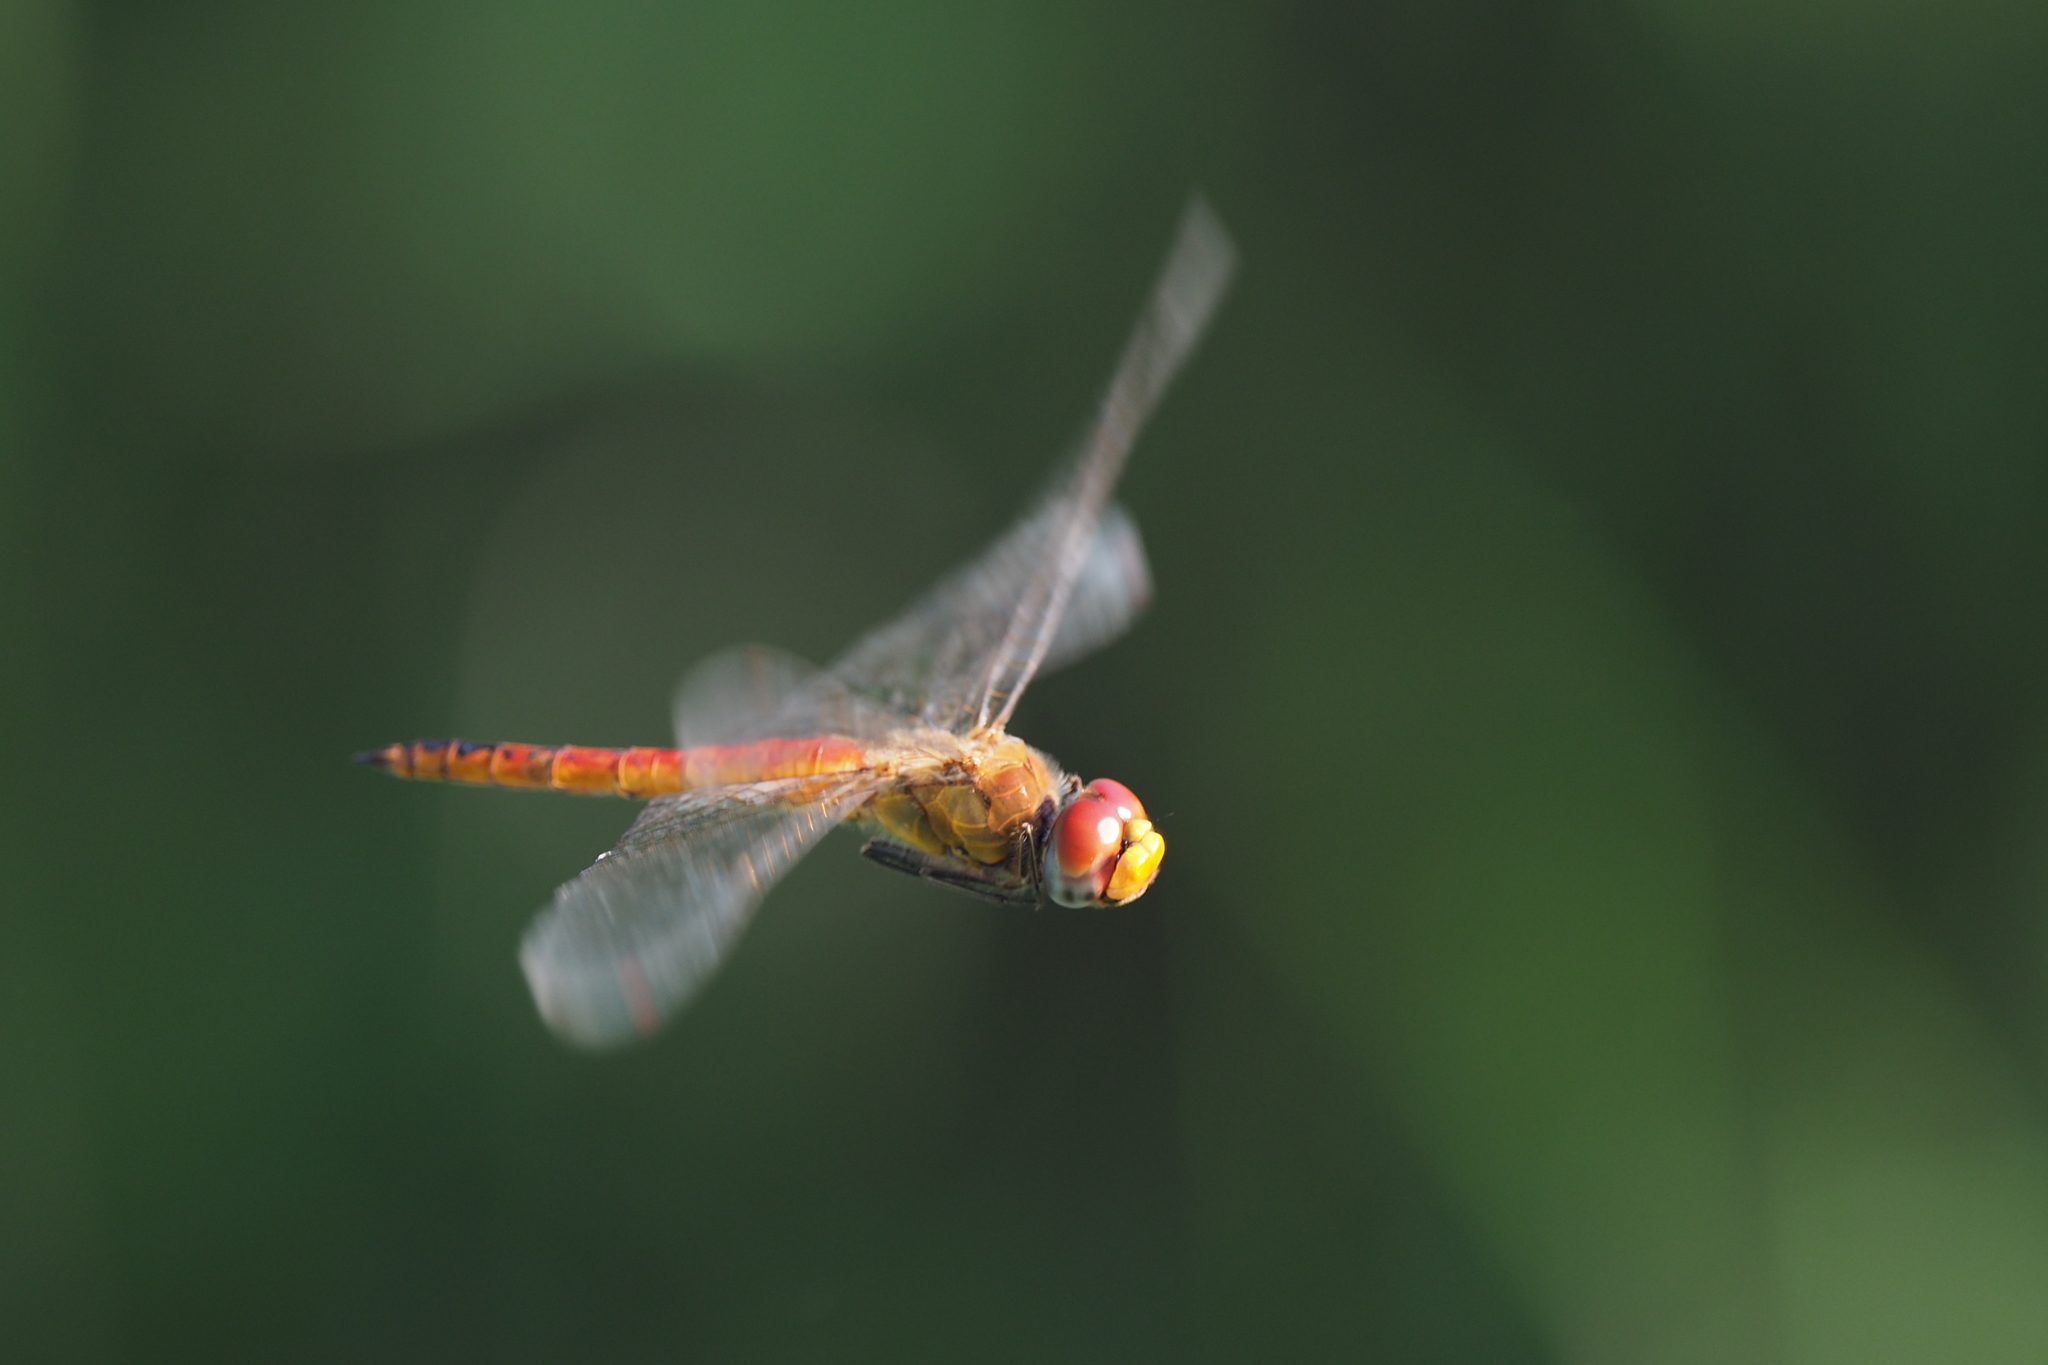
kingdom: Animalia
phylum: Arthropoda
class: Insecta
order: Odonata
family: Libellulidae
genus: Pantala
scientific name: Pantala flavescens
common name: Wandering glider
